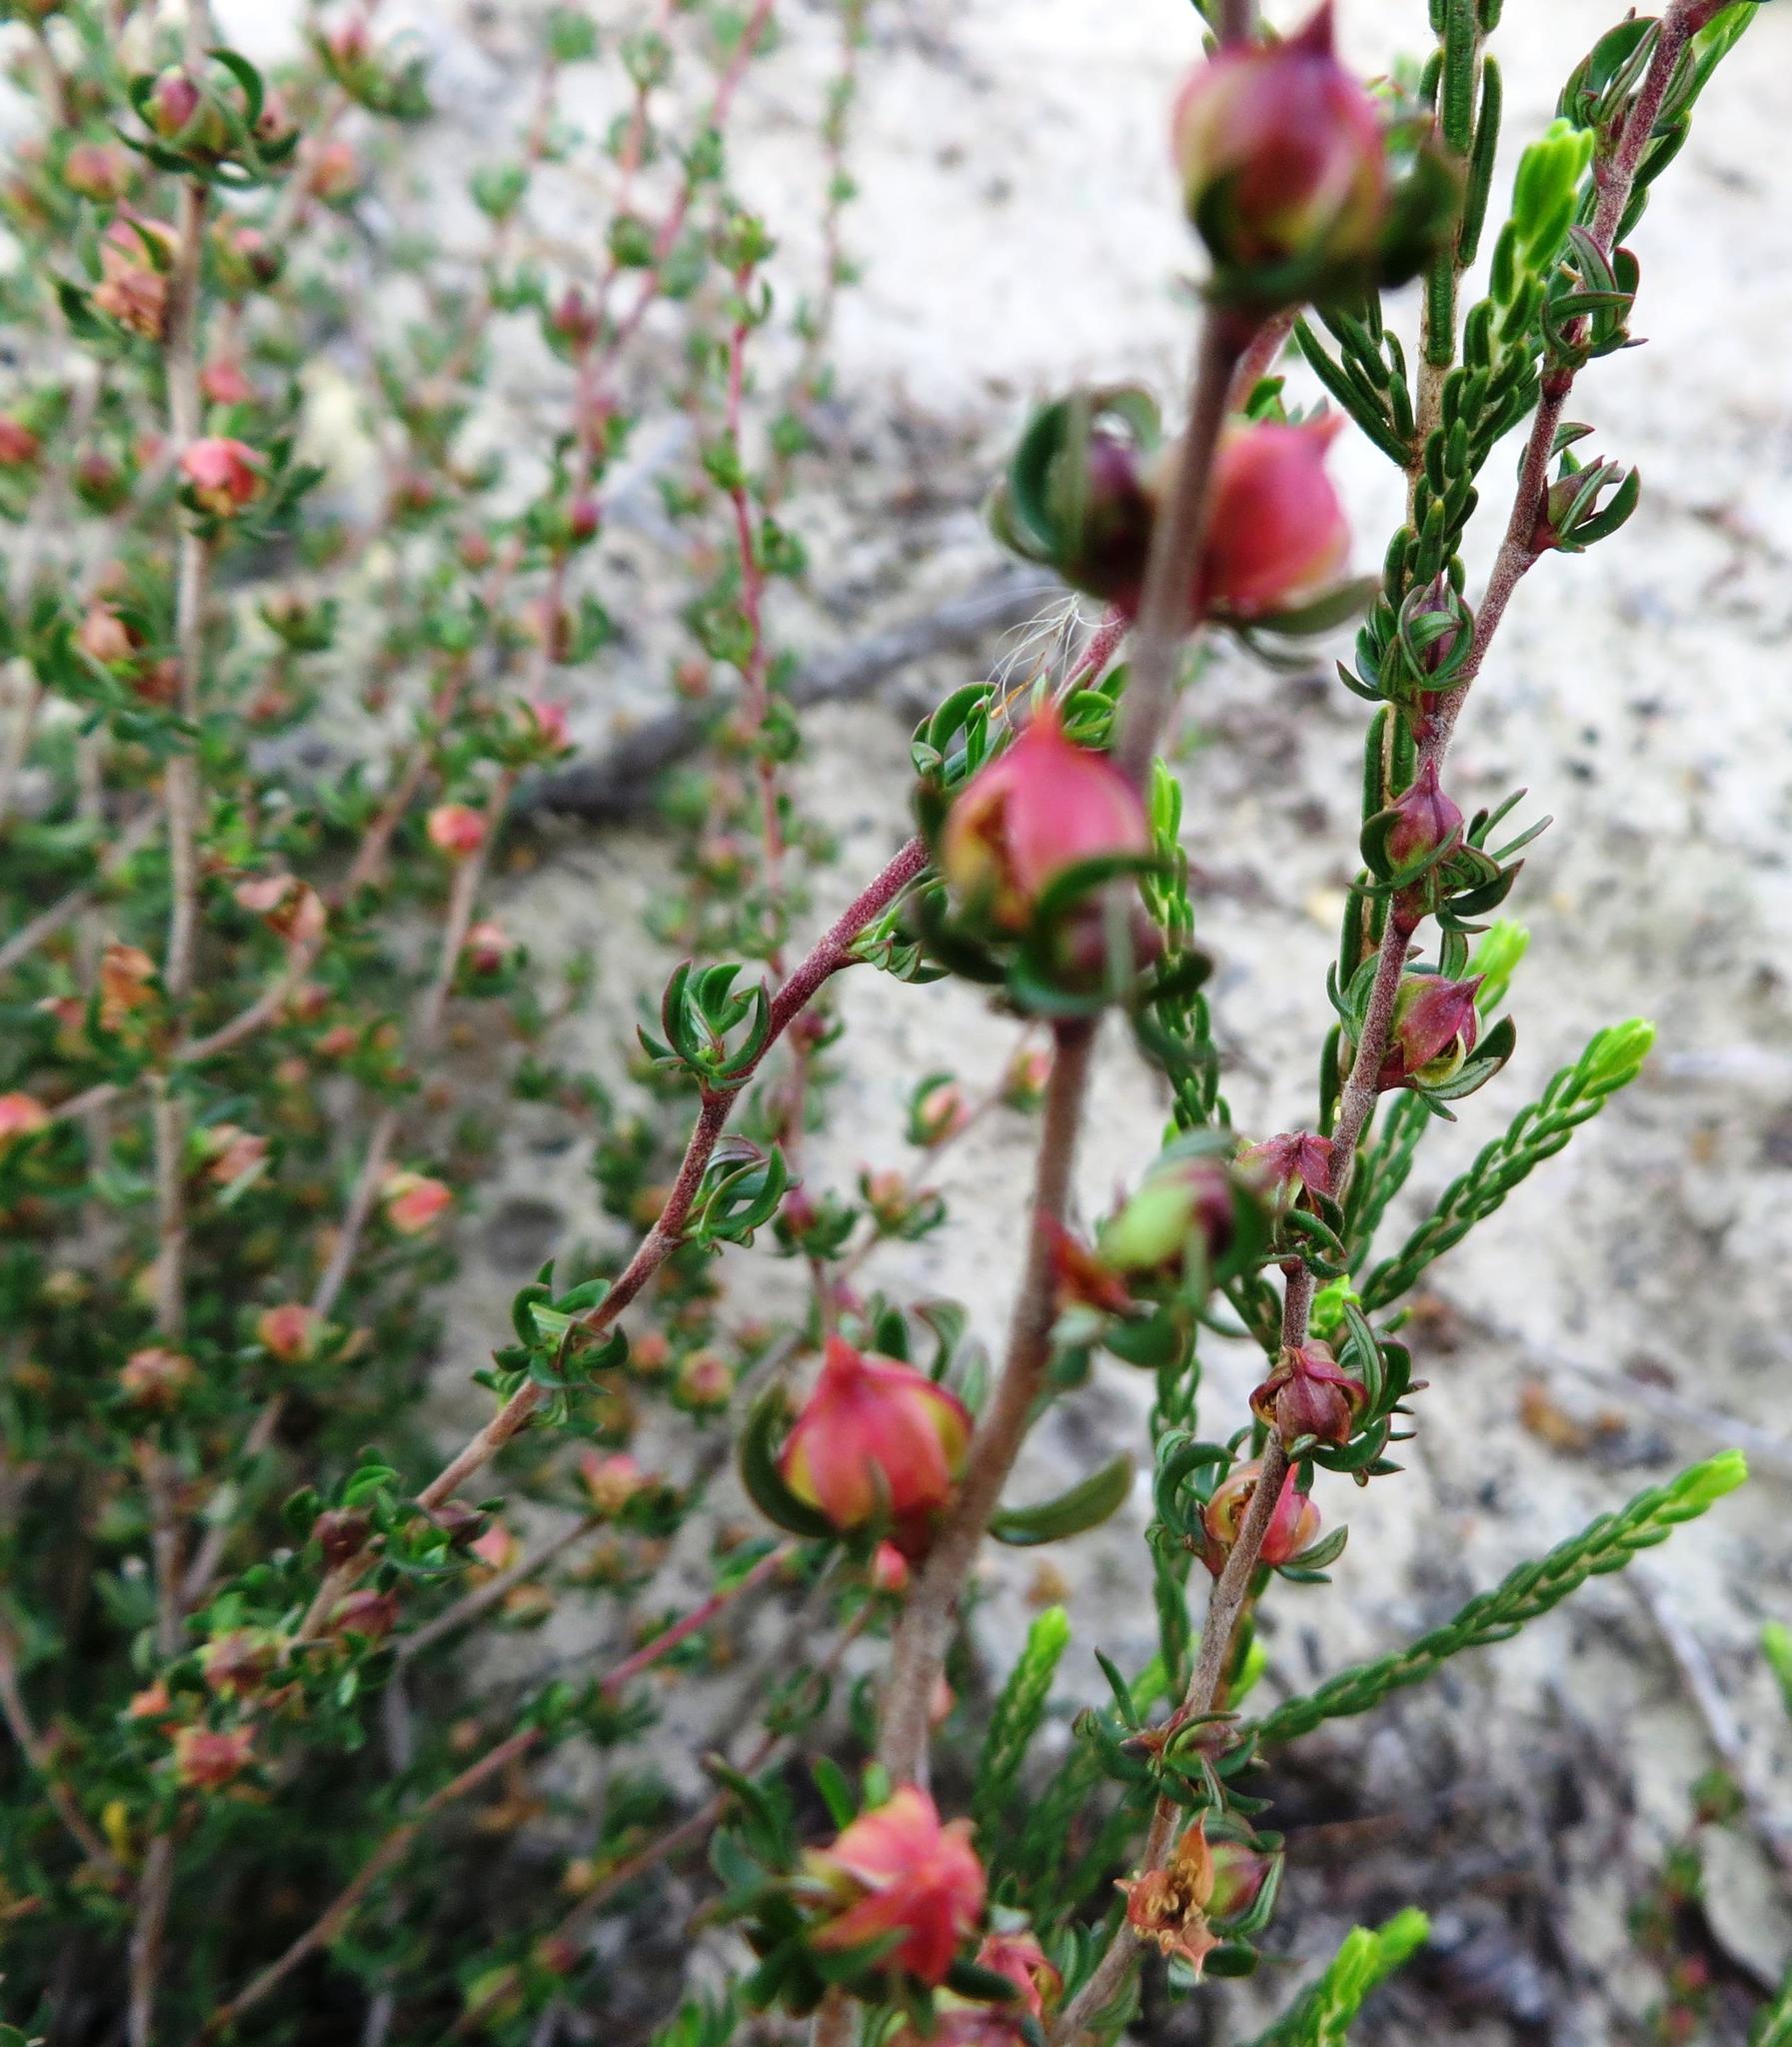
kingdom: Plantae
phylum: Tracheophyta
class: Magnoliopsida
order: Rosales
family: Rosaceae
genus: Cliffortia
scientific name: Cliffortia falcata
